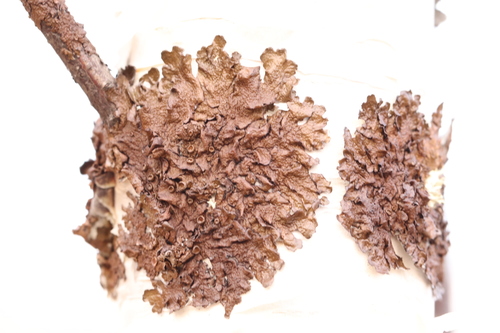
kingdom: Fungi
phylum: Ascomycota
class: Lecanoromycetes
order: Lecanorales
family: Parmeliaceae
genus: Melanohalea
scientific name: Melanohalea olivacea
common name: Spotted camouflage lichen
